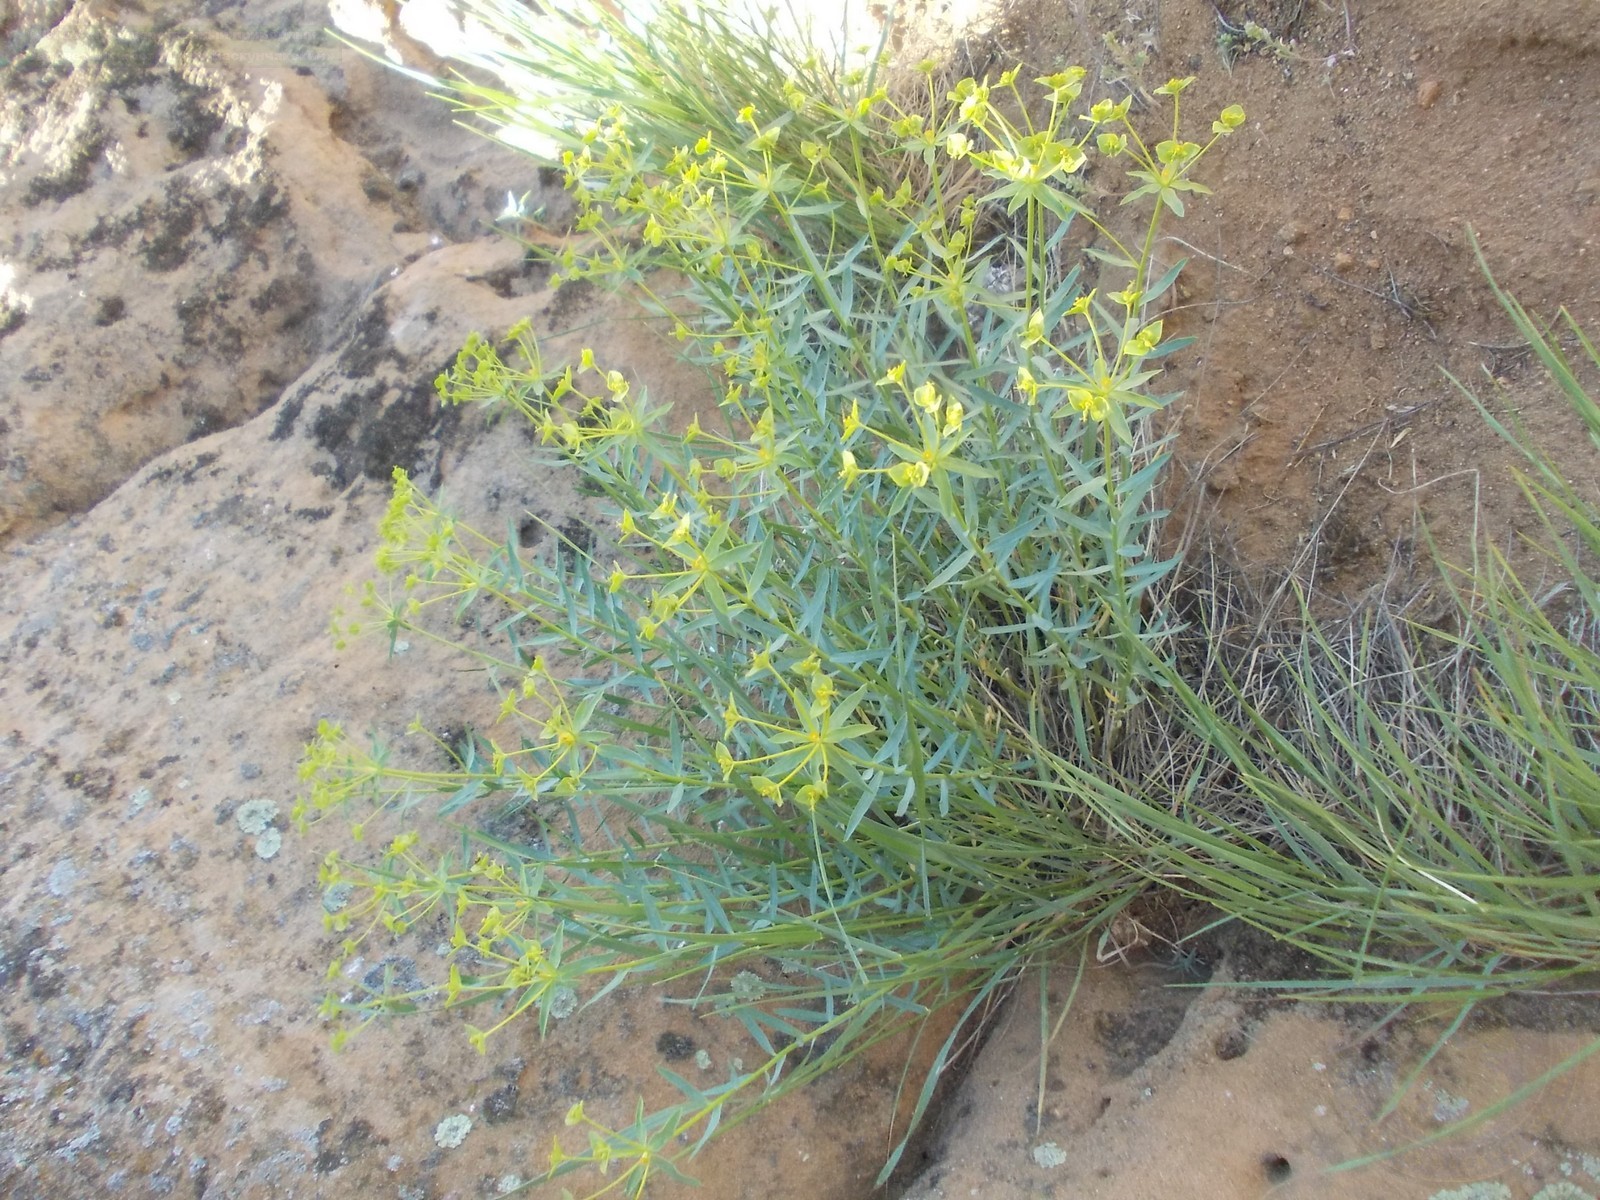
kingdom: Plantae
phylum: Tracheophyta
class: Magnoliopsida
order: Malpighiales
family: Euphorbiaceae
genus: Euphorbia
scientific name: Euphorbia seguieriana
